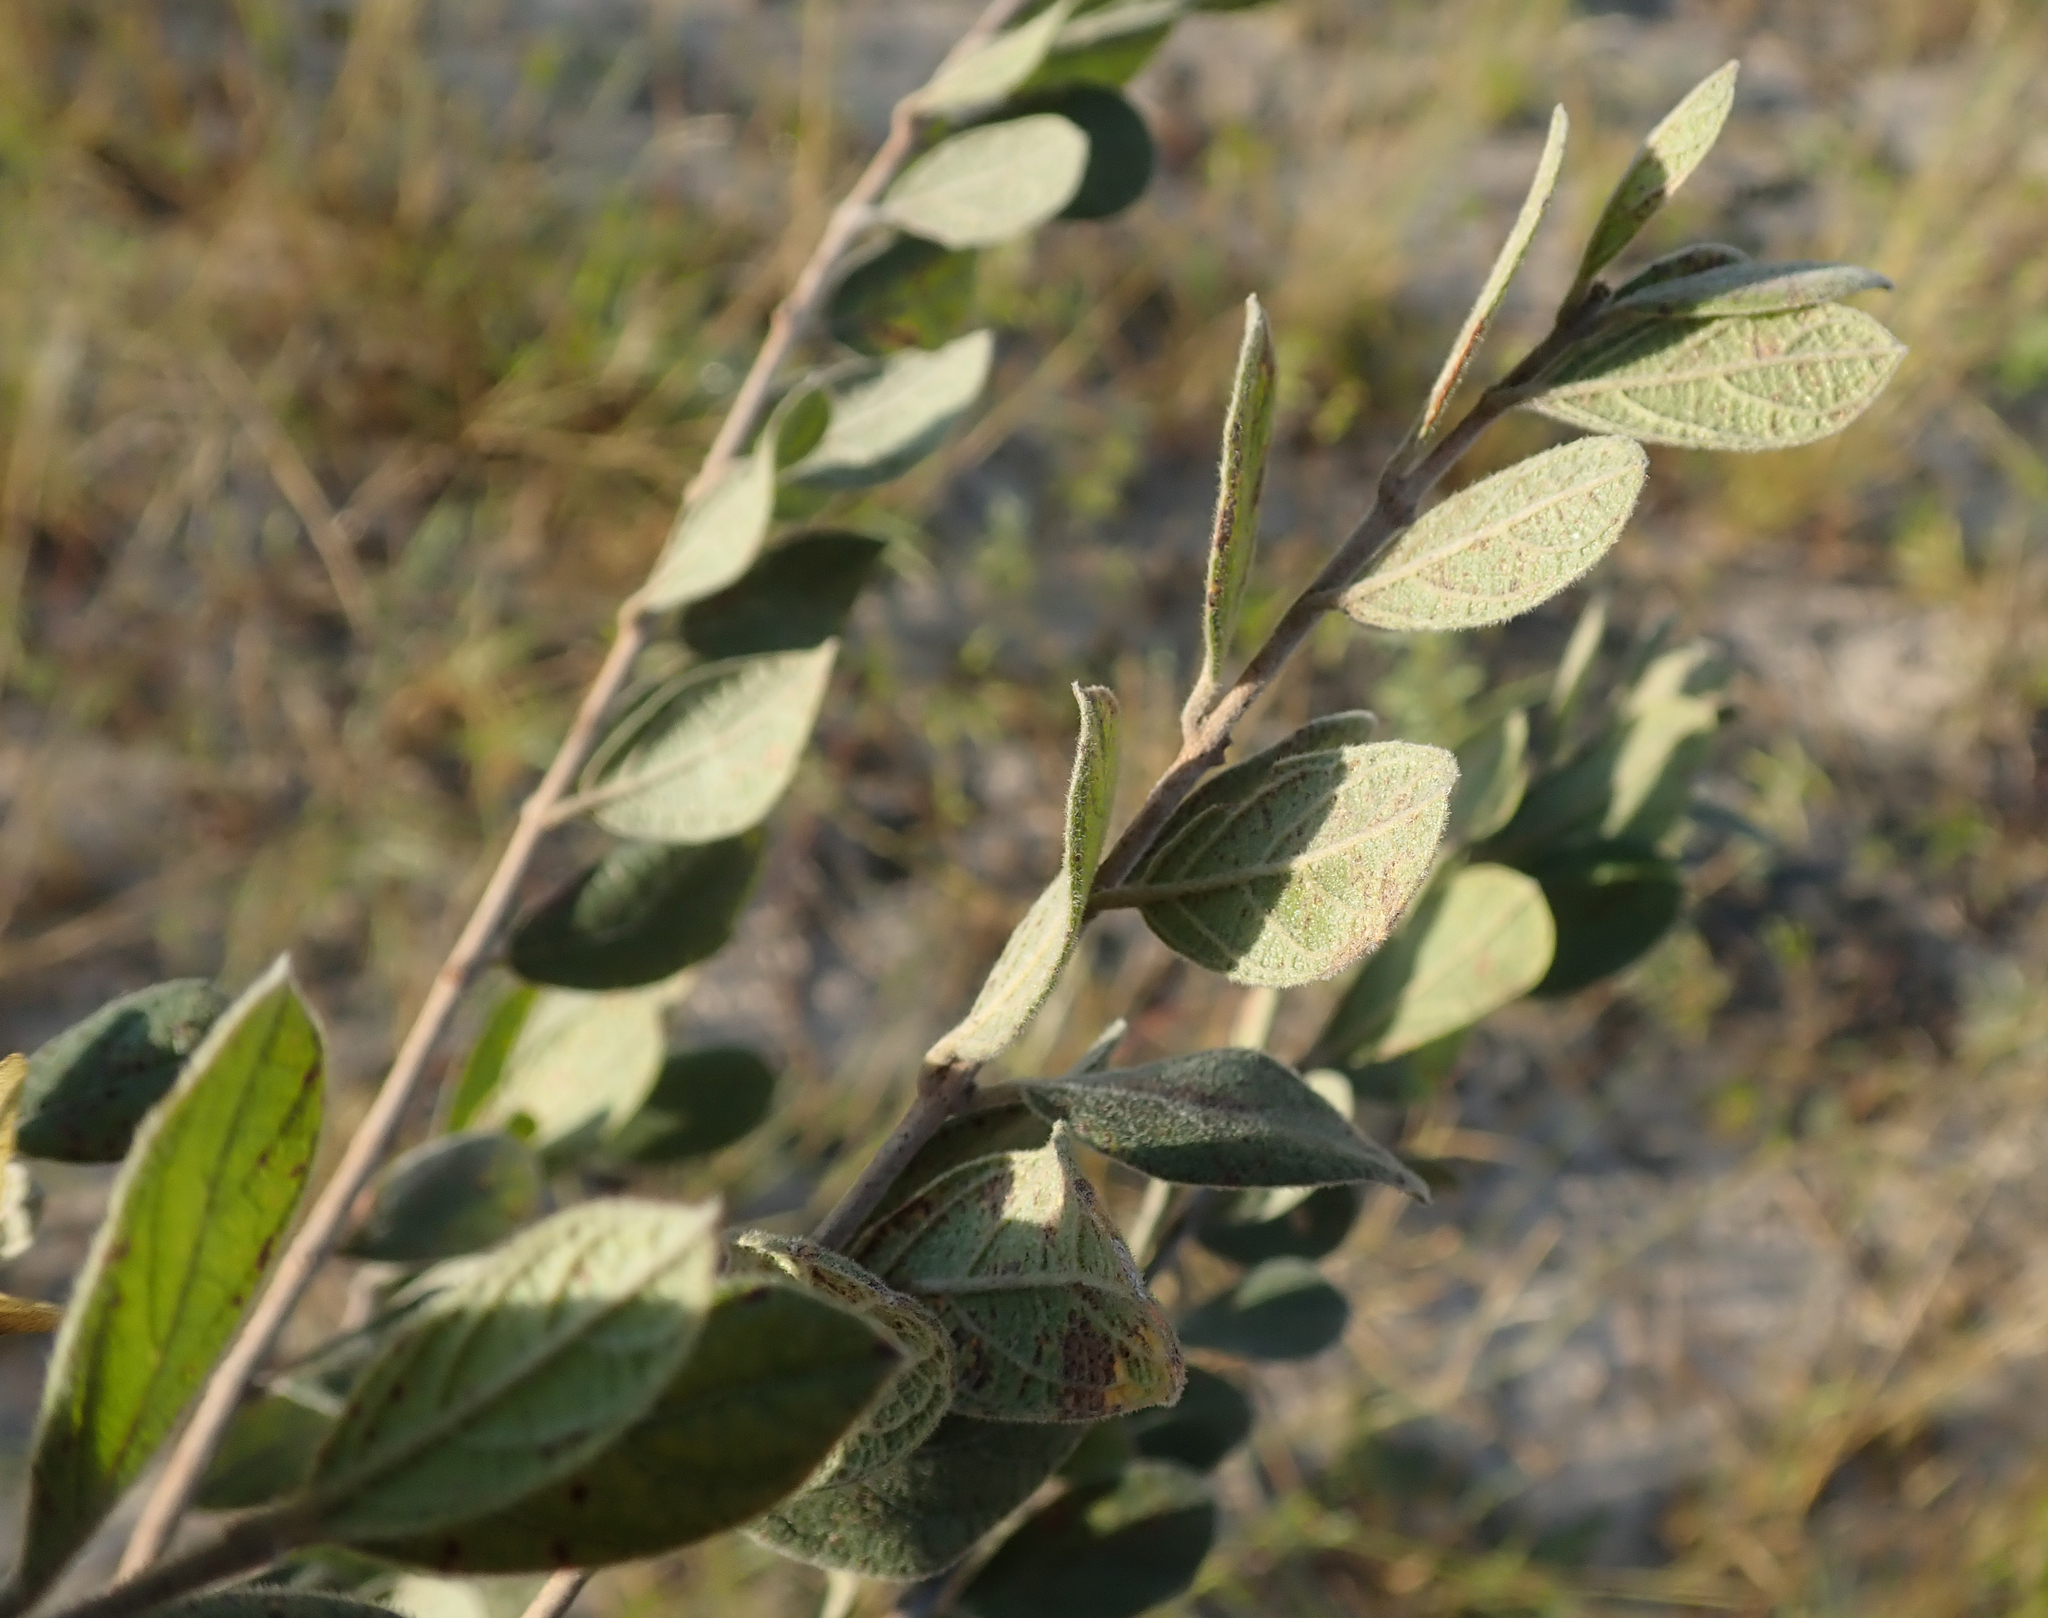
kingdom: Plantae
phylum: Tracheophyta
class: Magnoliopsida
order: Myrtales
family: Combretaceae
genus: Combretum
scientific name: Combretum hereroense
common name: Russet bushwillow
